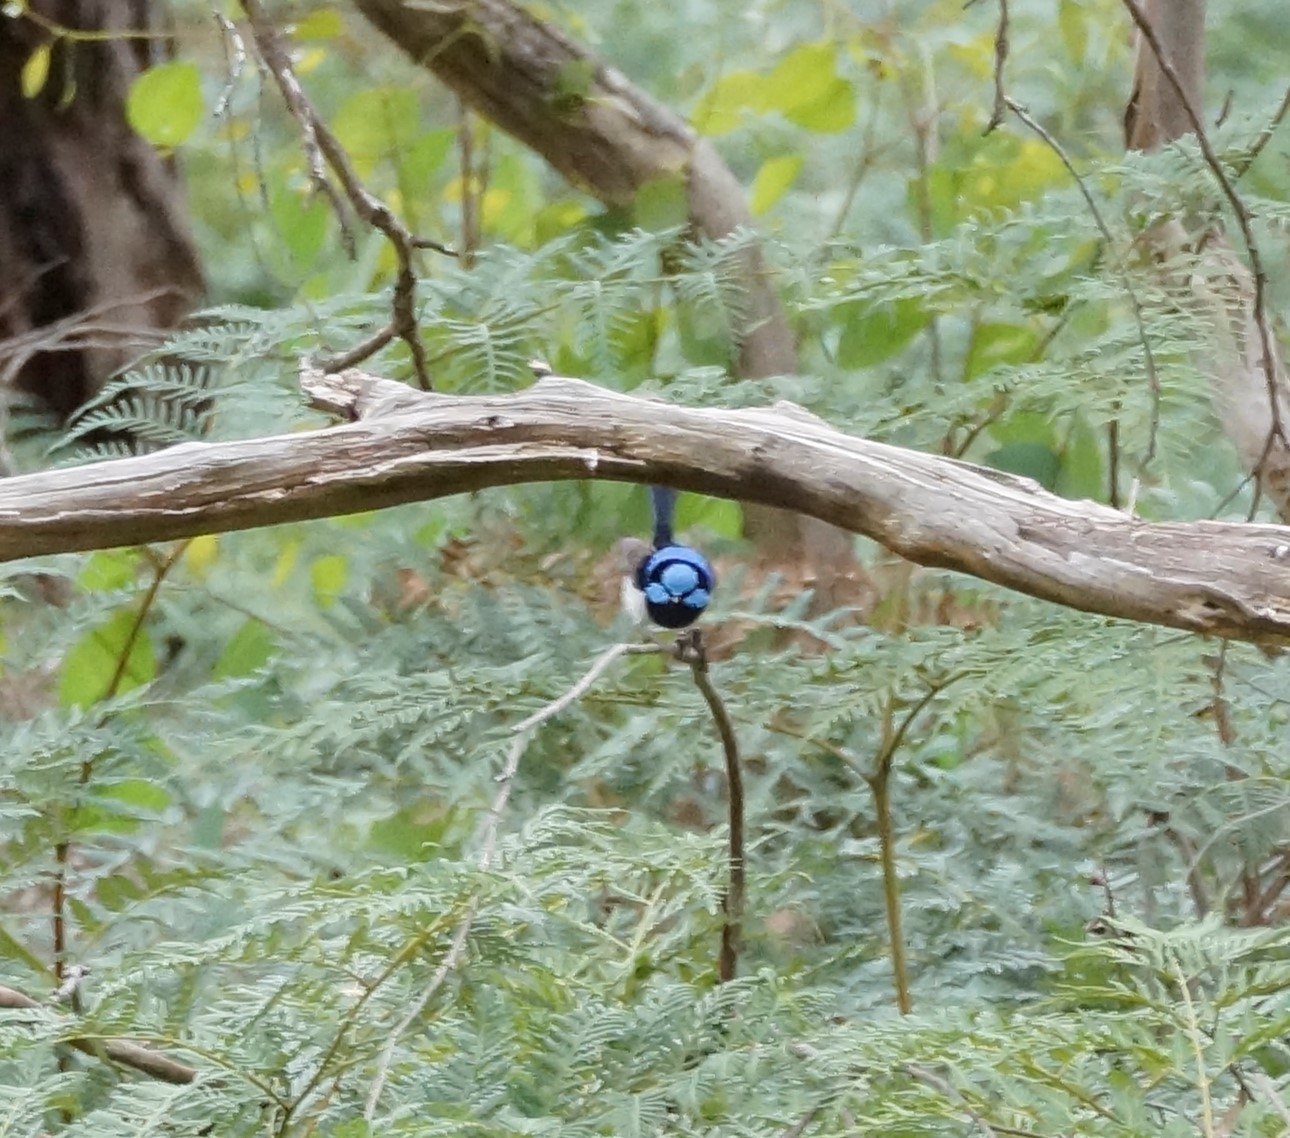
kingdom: Animalia
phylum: Chordata
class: Aves
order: Passeriformes
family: Maluridae
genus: Malurus
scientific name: Malurus cyaneus
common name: Superb fairywren
